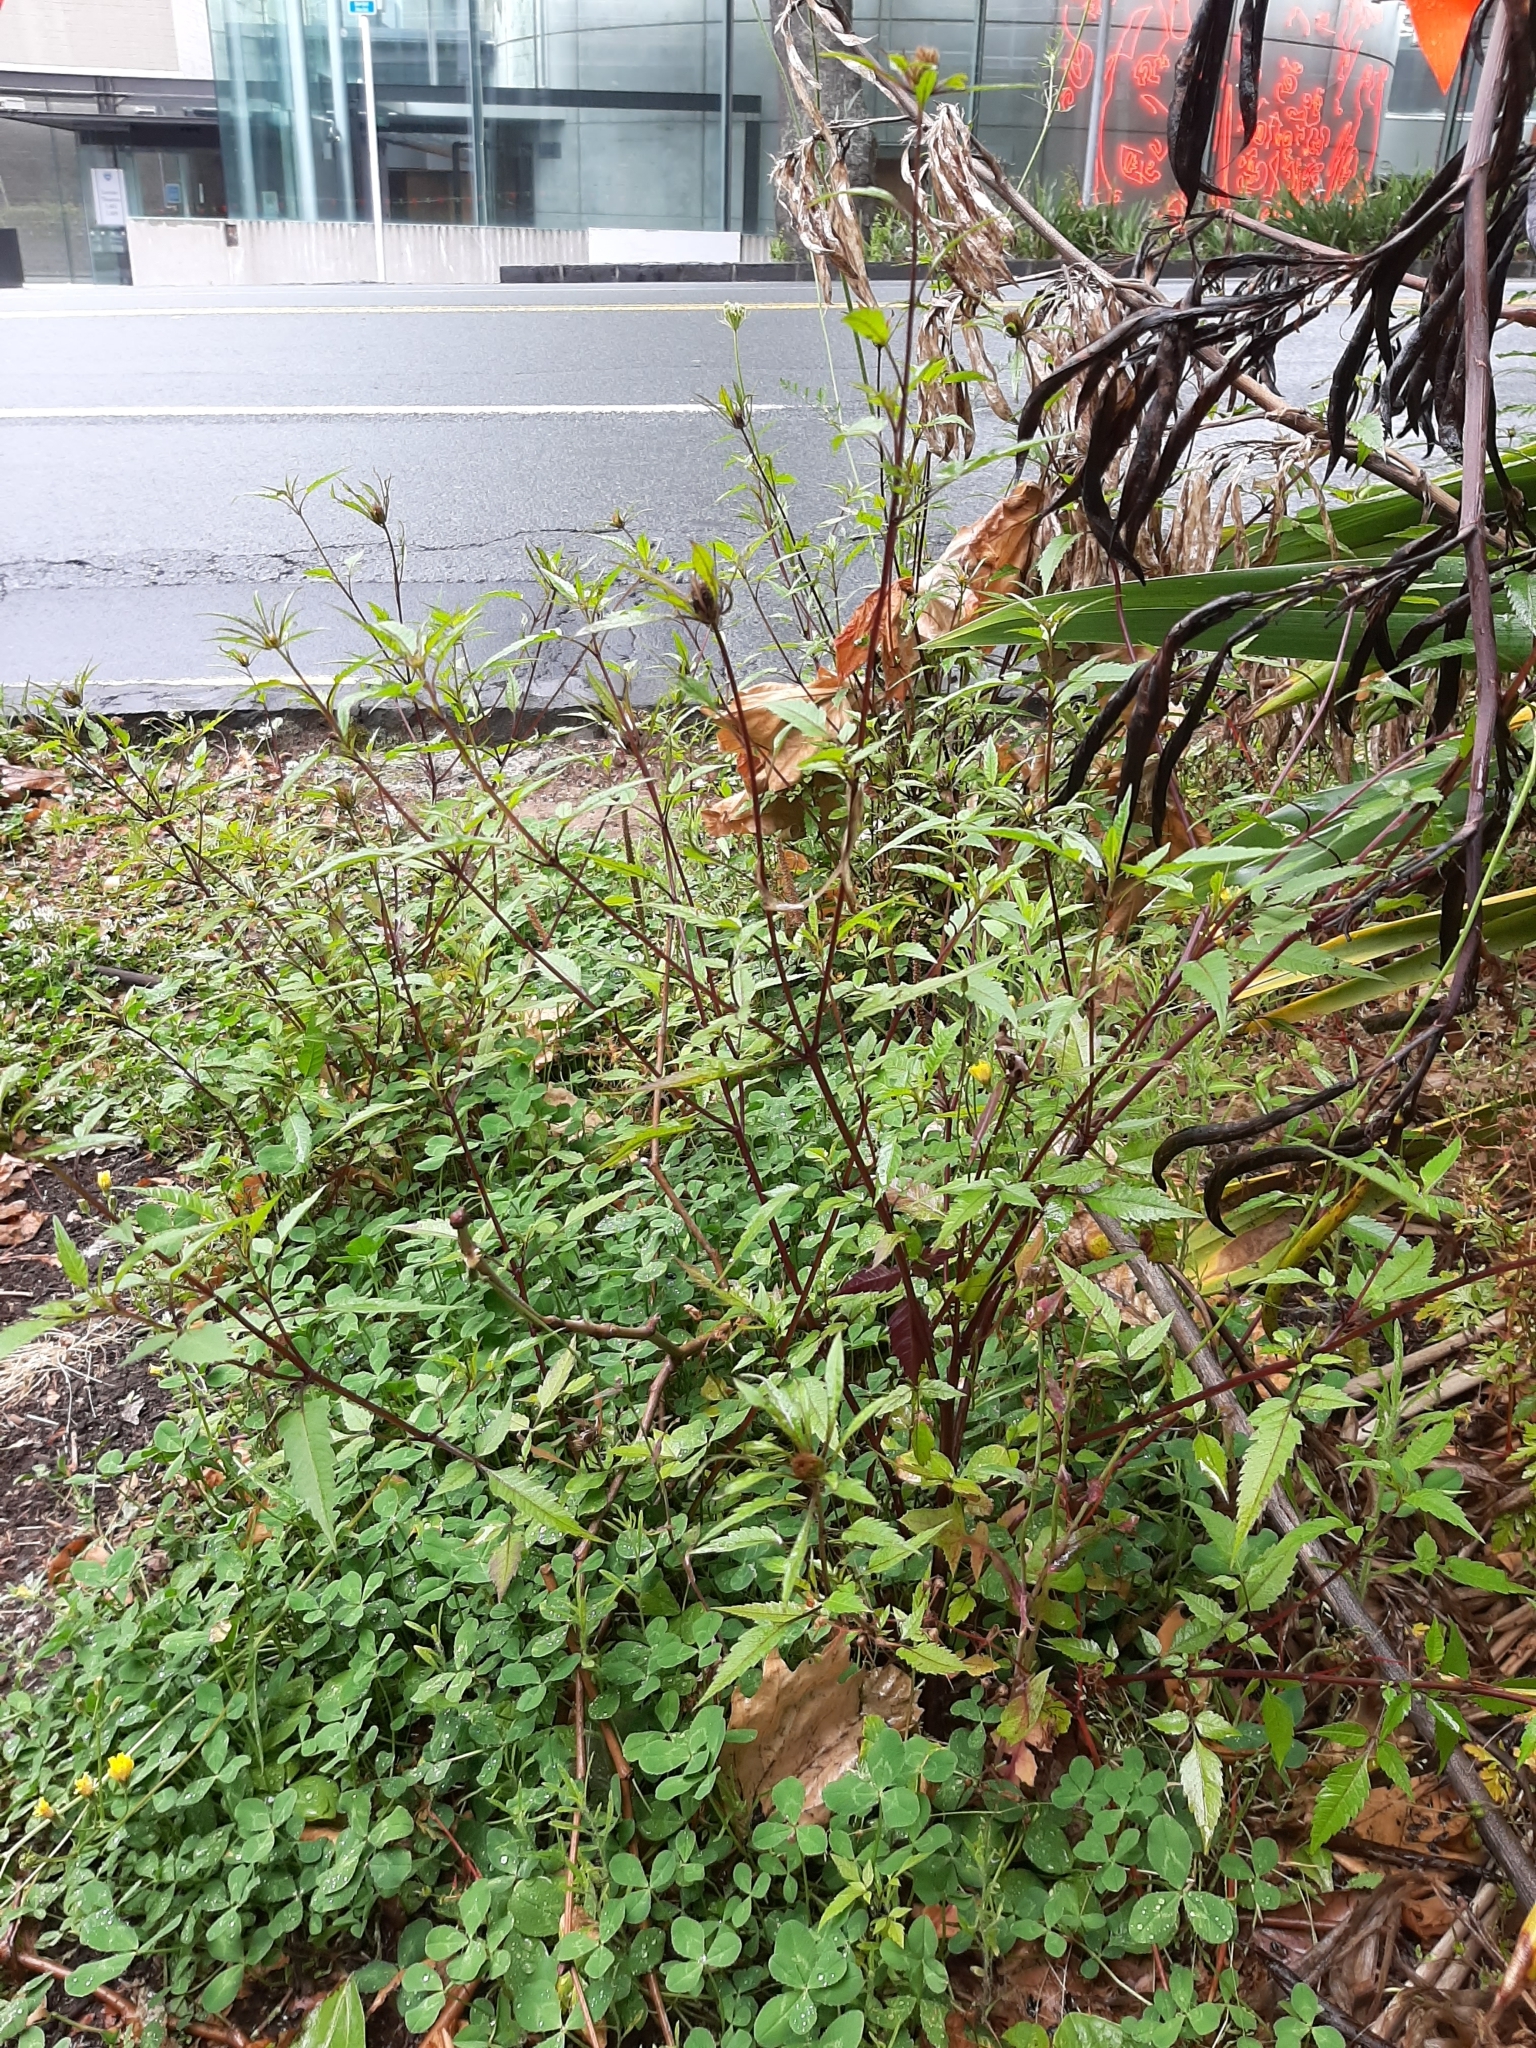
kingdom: Plantae
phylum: Tracheophyta
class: Magnoliopsida
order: Asterales
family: Asteraceae
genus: Bidens
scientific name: Bidens frondosa
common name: Beggarticks
